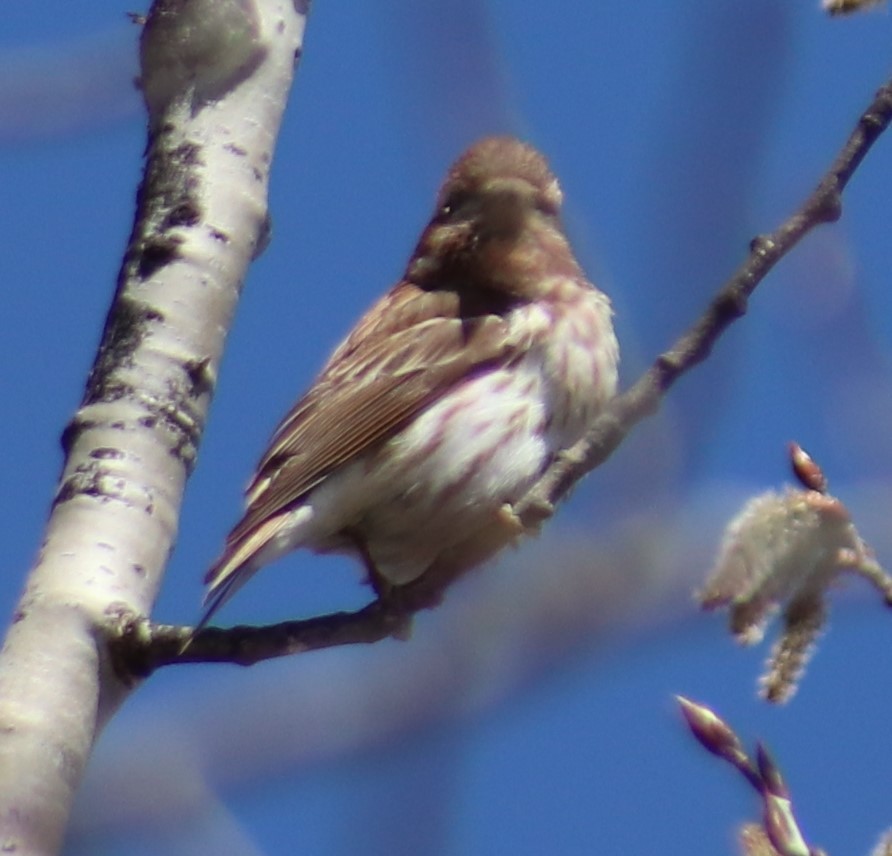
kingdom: Animalia
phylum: Chordata
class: Aves
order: Passeriformes
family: Fringillidae
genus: Haemorhous
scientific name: Haemorhous purpureus
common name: Purple finch
